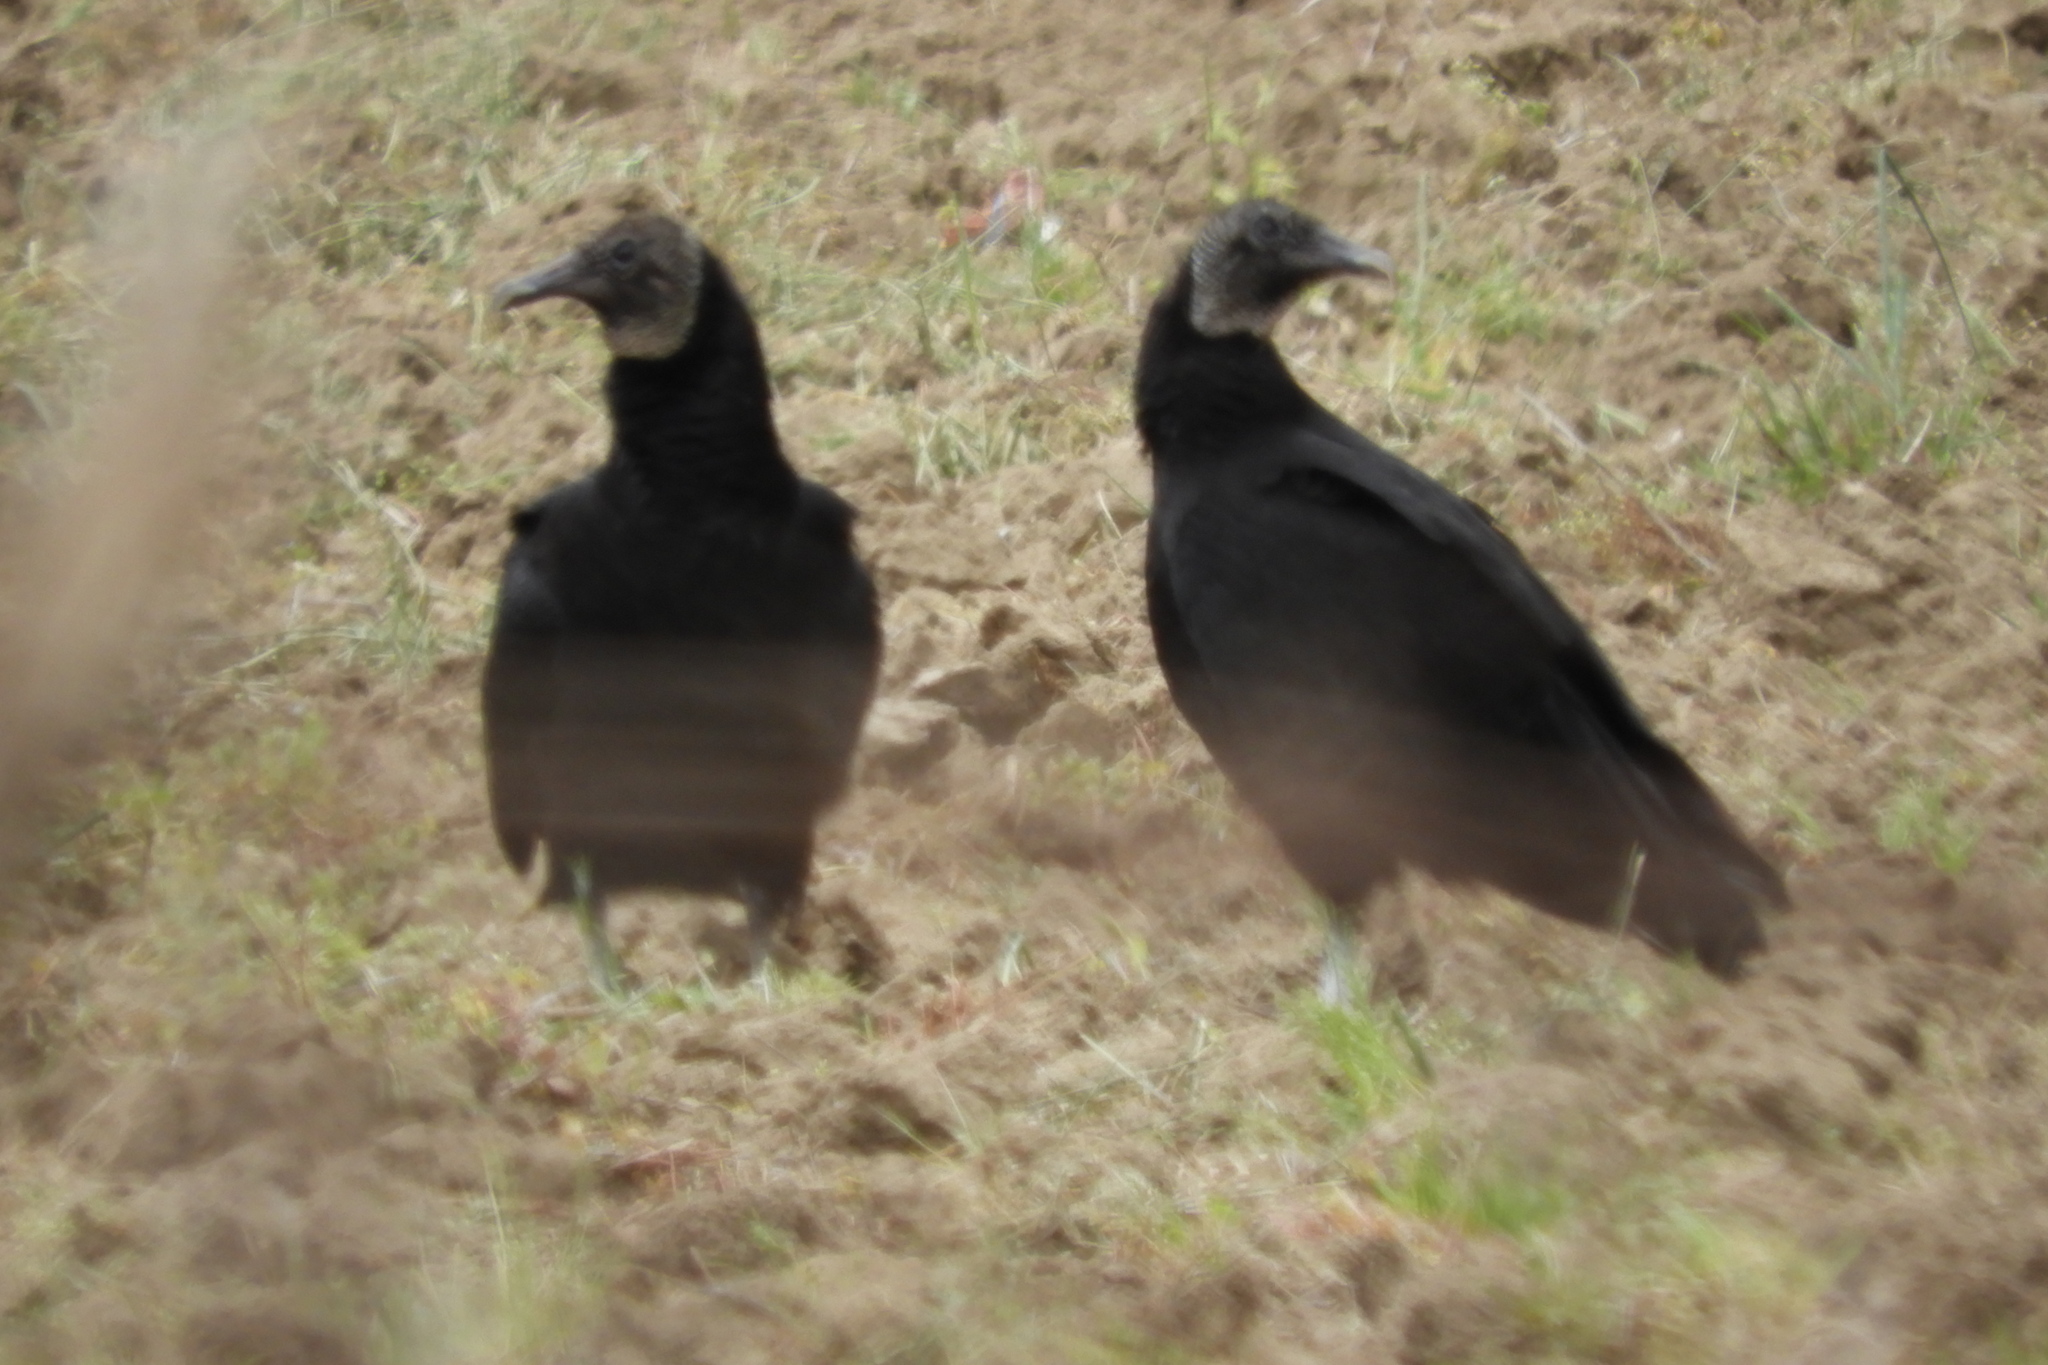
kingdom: Animalia
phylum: Chordata
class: Aves
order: Accipitriformes
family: Cathartidae
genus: Coragyps
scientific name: Coragyps atratus
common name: Black vulture
